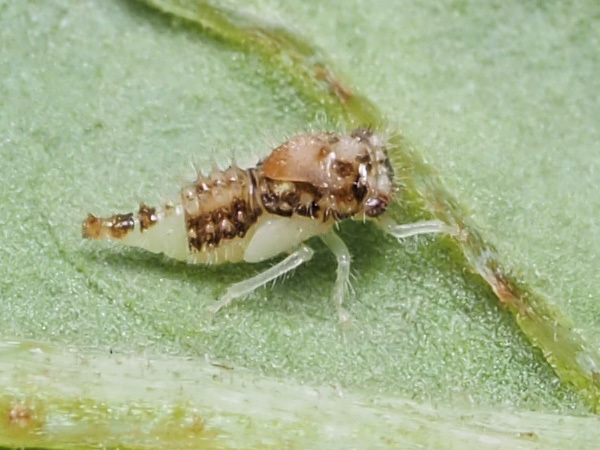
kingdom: Animalia
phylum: Arthropoda
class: Insecta
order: Hemiptera
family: Membracidae
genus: Entylia
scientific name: Entylia carinata
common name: Keeled treehopper
